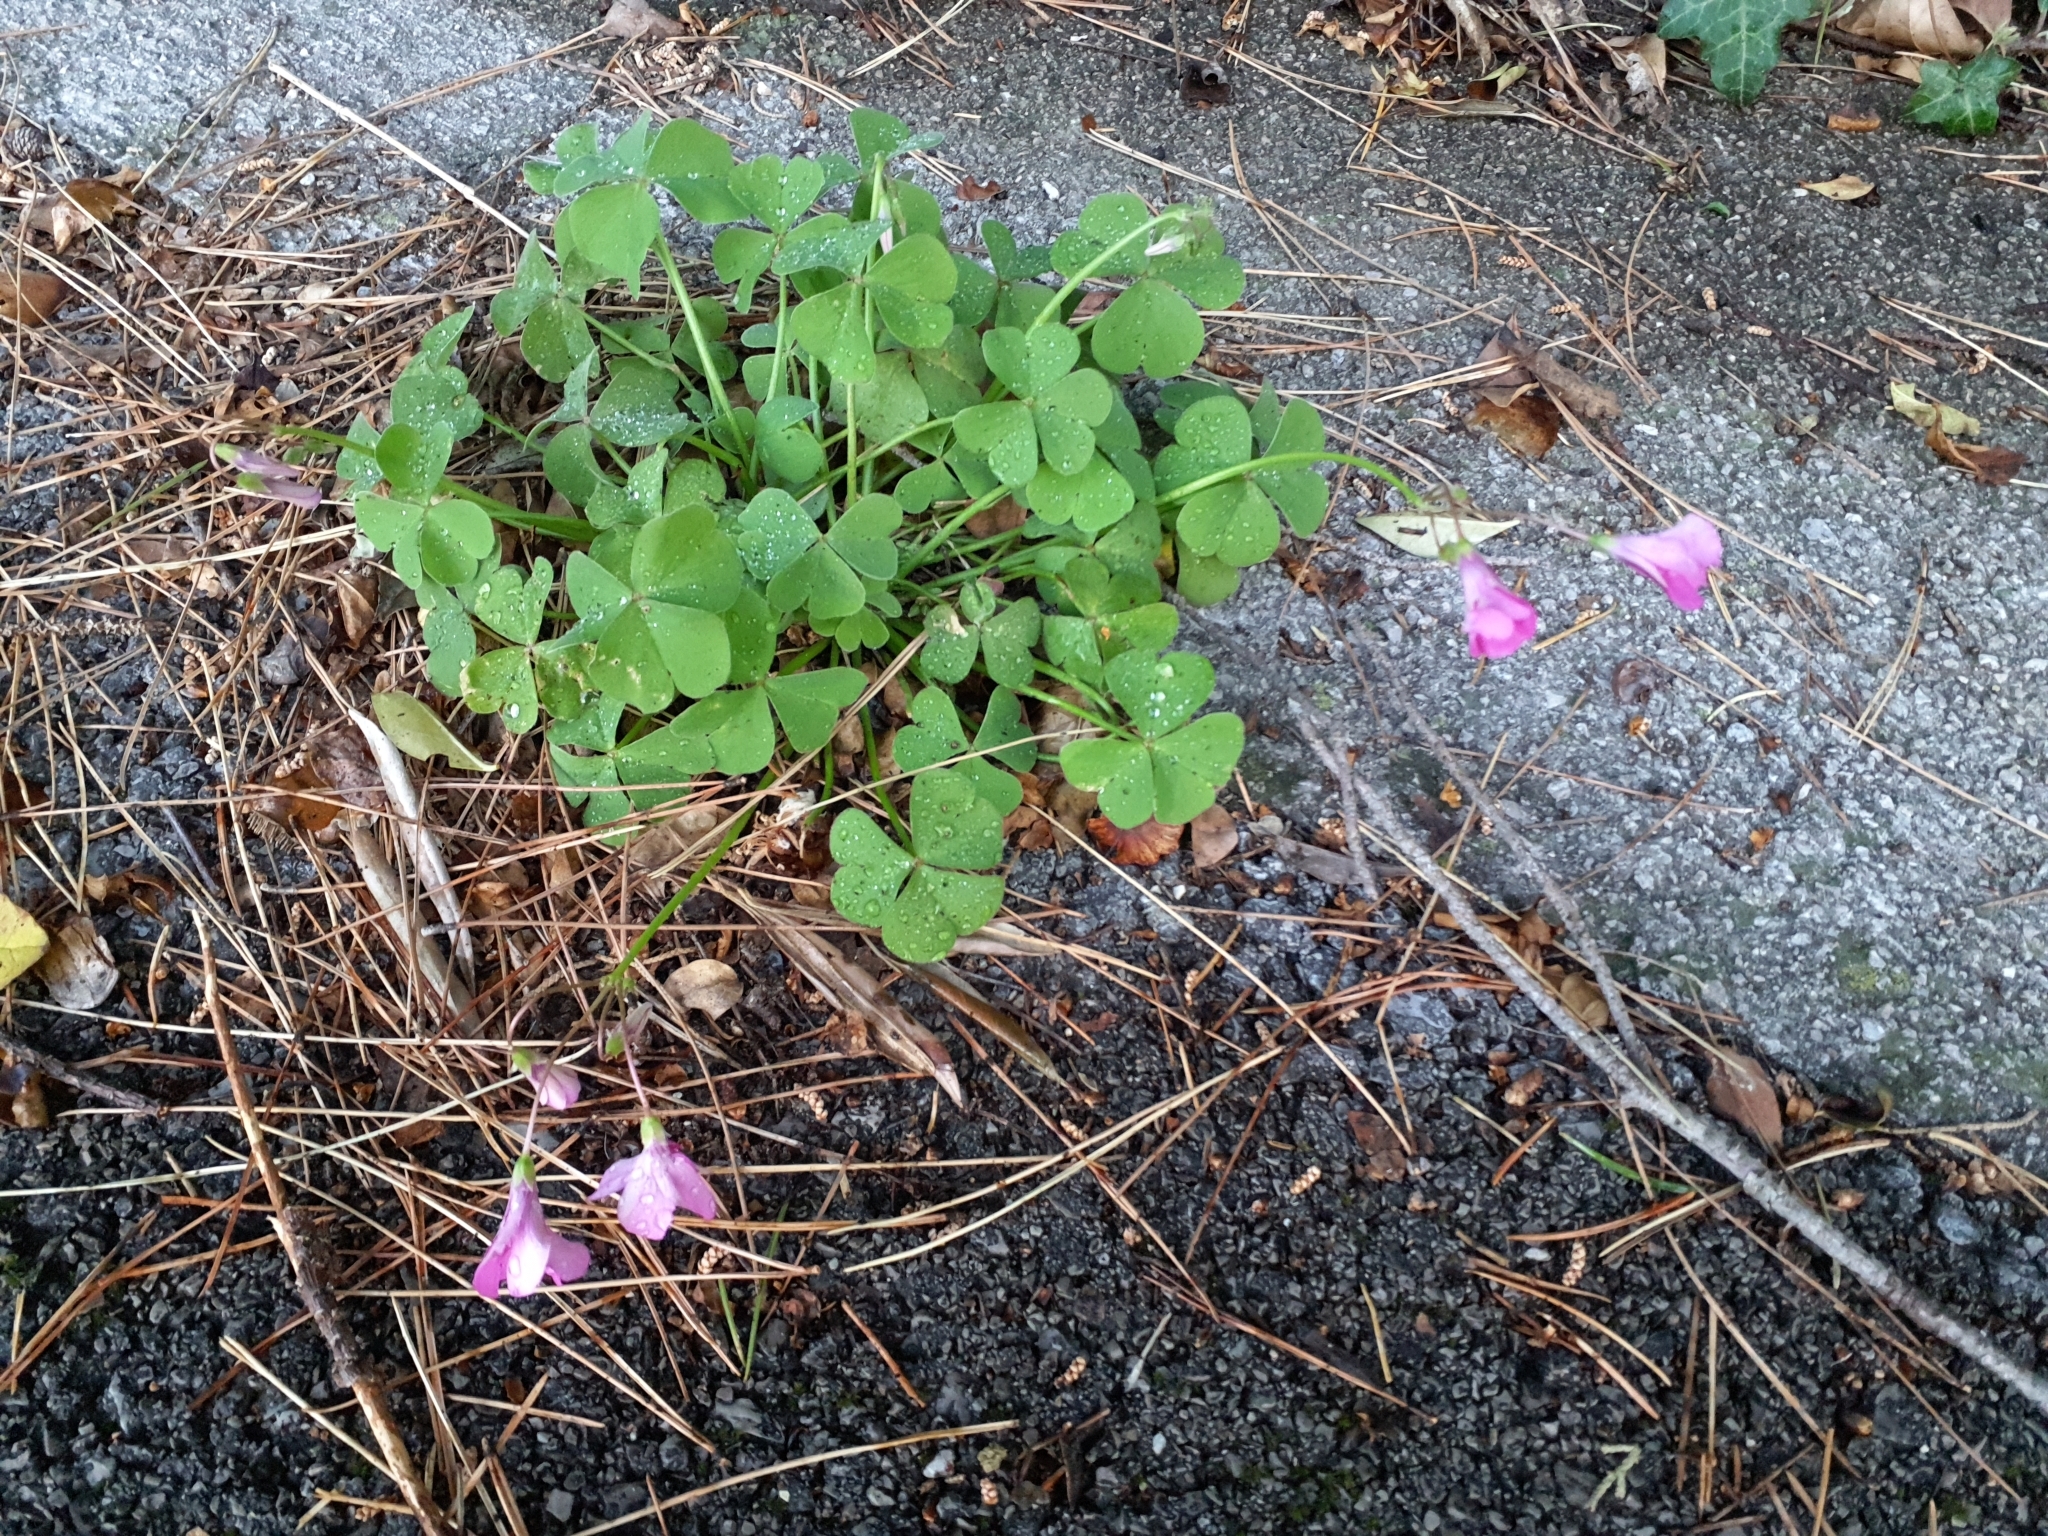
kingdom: Plantae
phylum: Tracheophyta
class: Magnoliopsida
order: Oxalidales
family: Oxalidaceae
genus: Oxalis
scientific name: Oxalis articulata
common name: Pink-sorrel
